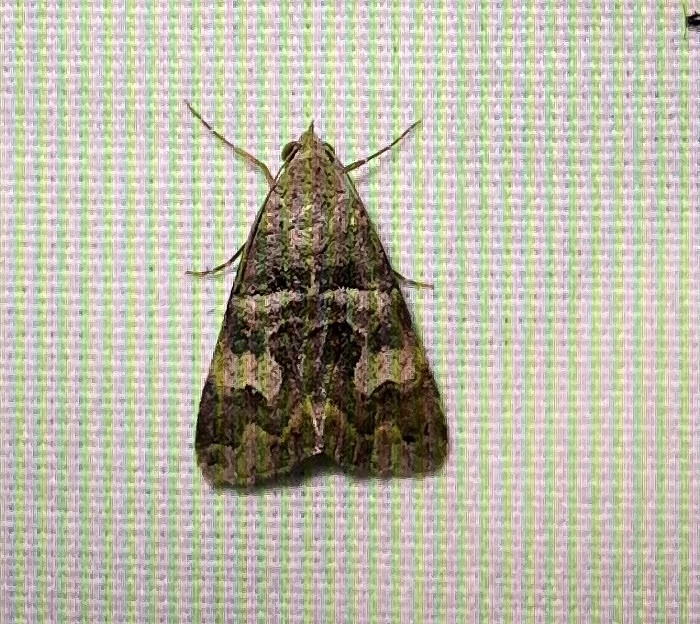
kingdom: Animalia
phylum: Arthropoda
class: Insecta
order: Lepidoptera
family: Erebidae
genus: Bulia
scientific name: Bulia deducta
